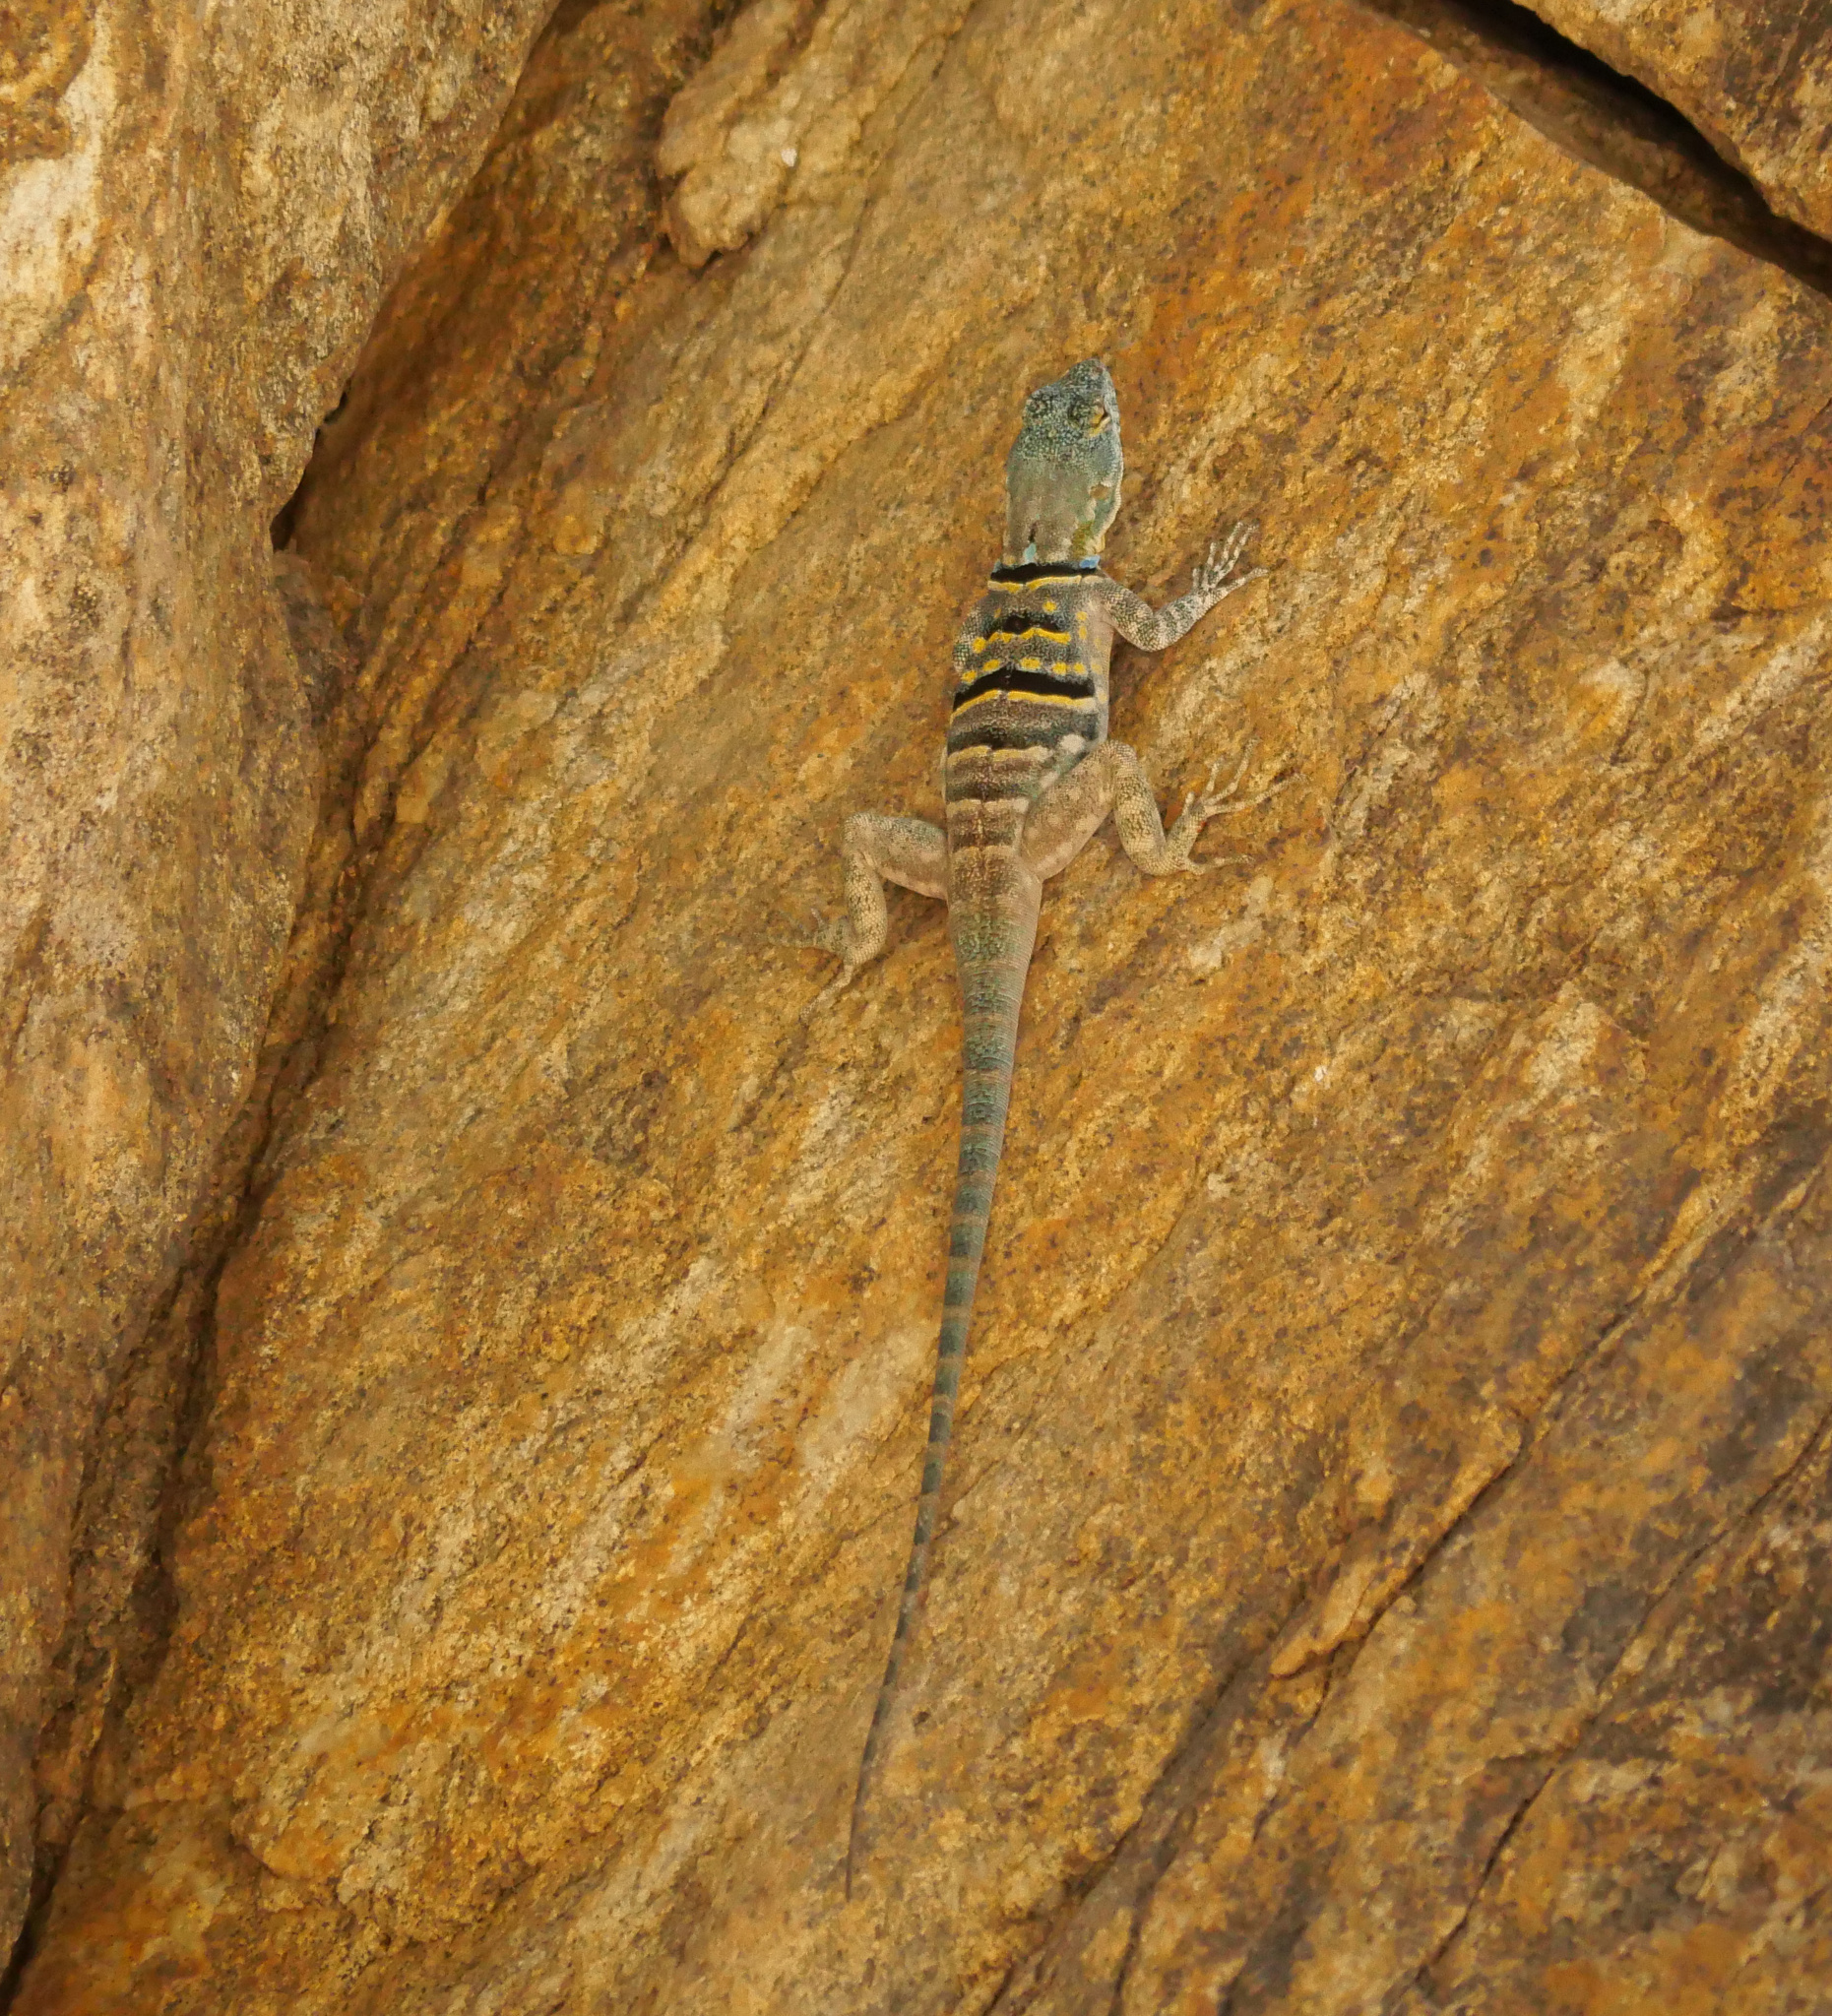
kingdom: Animalia
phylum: Chordata
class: Squamata
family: Phrynosomatidae
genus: Petrosaurus
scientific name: Petrosaurus thalassinus
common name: Baja california rock lizard
